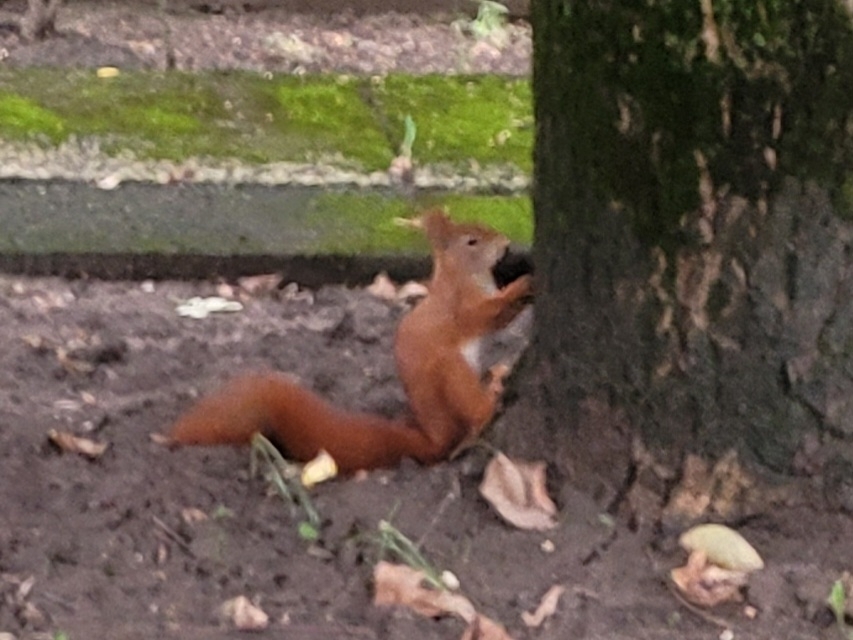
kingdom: Animalia
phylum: Chordata
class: Mammalia
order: Rodentia
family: Sciuridae
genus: Sciurus
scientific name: Sciurus vulgaris
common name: Eurasian red squirrel
